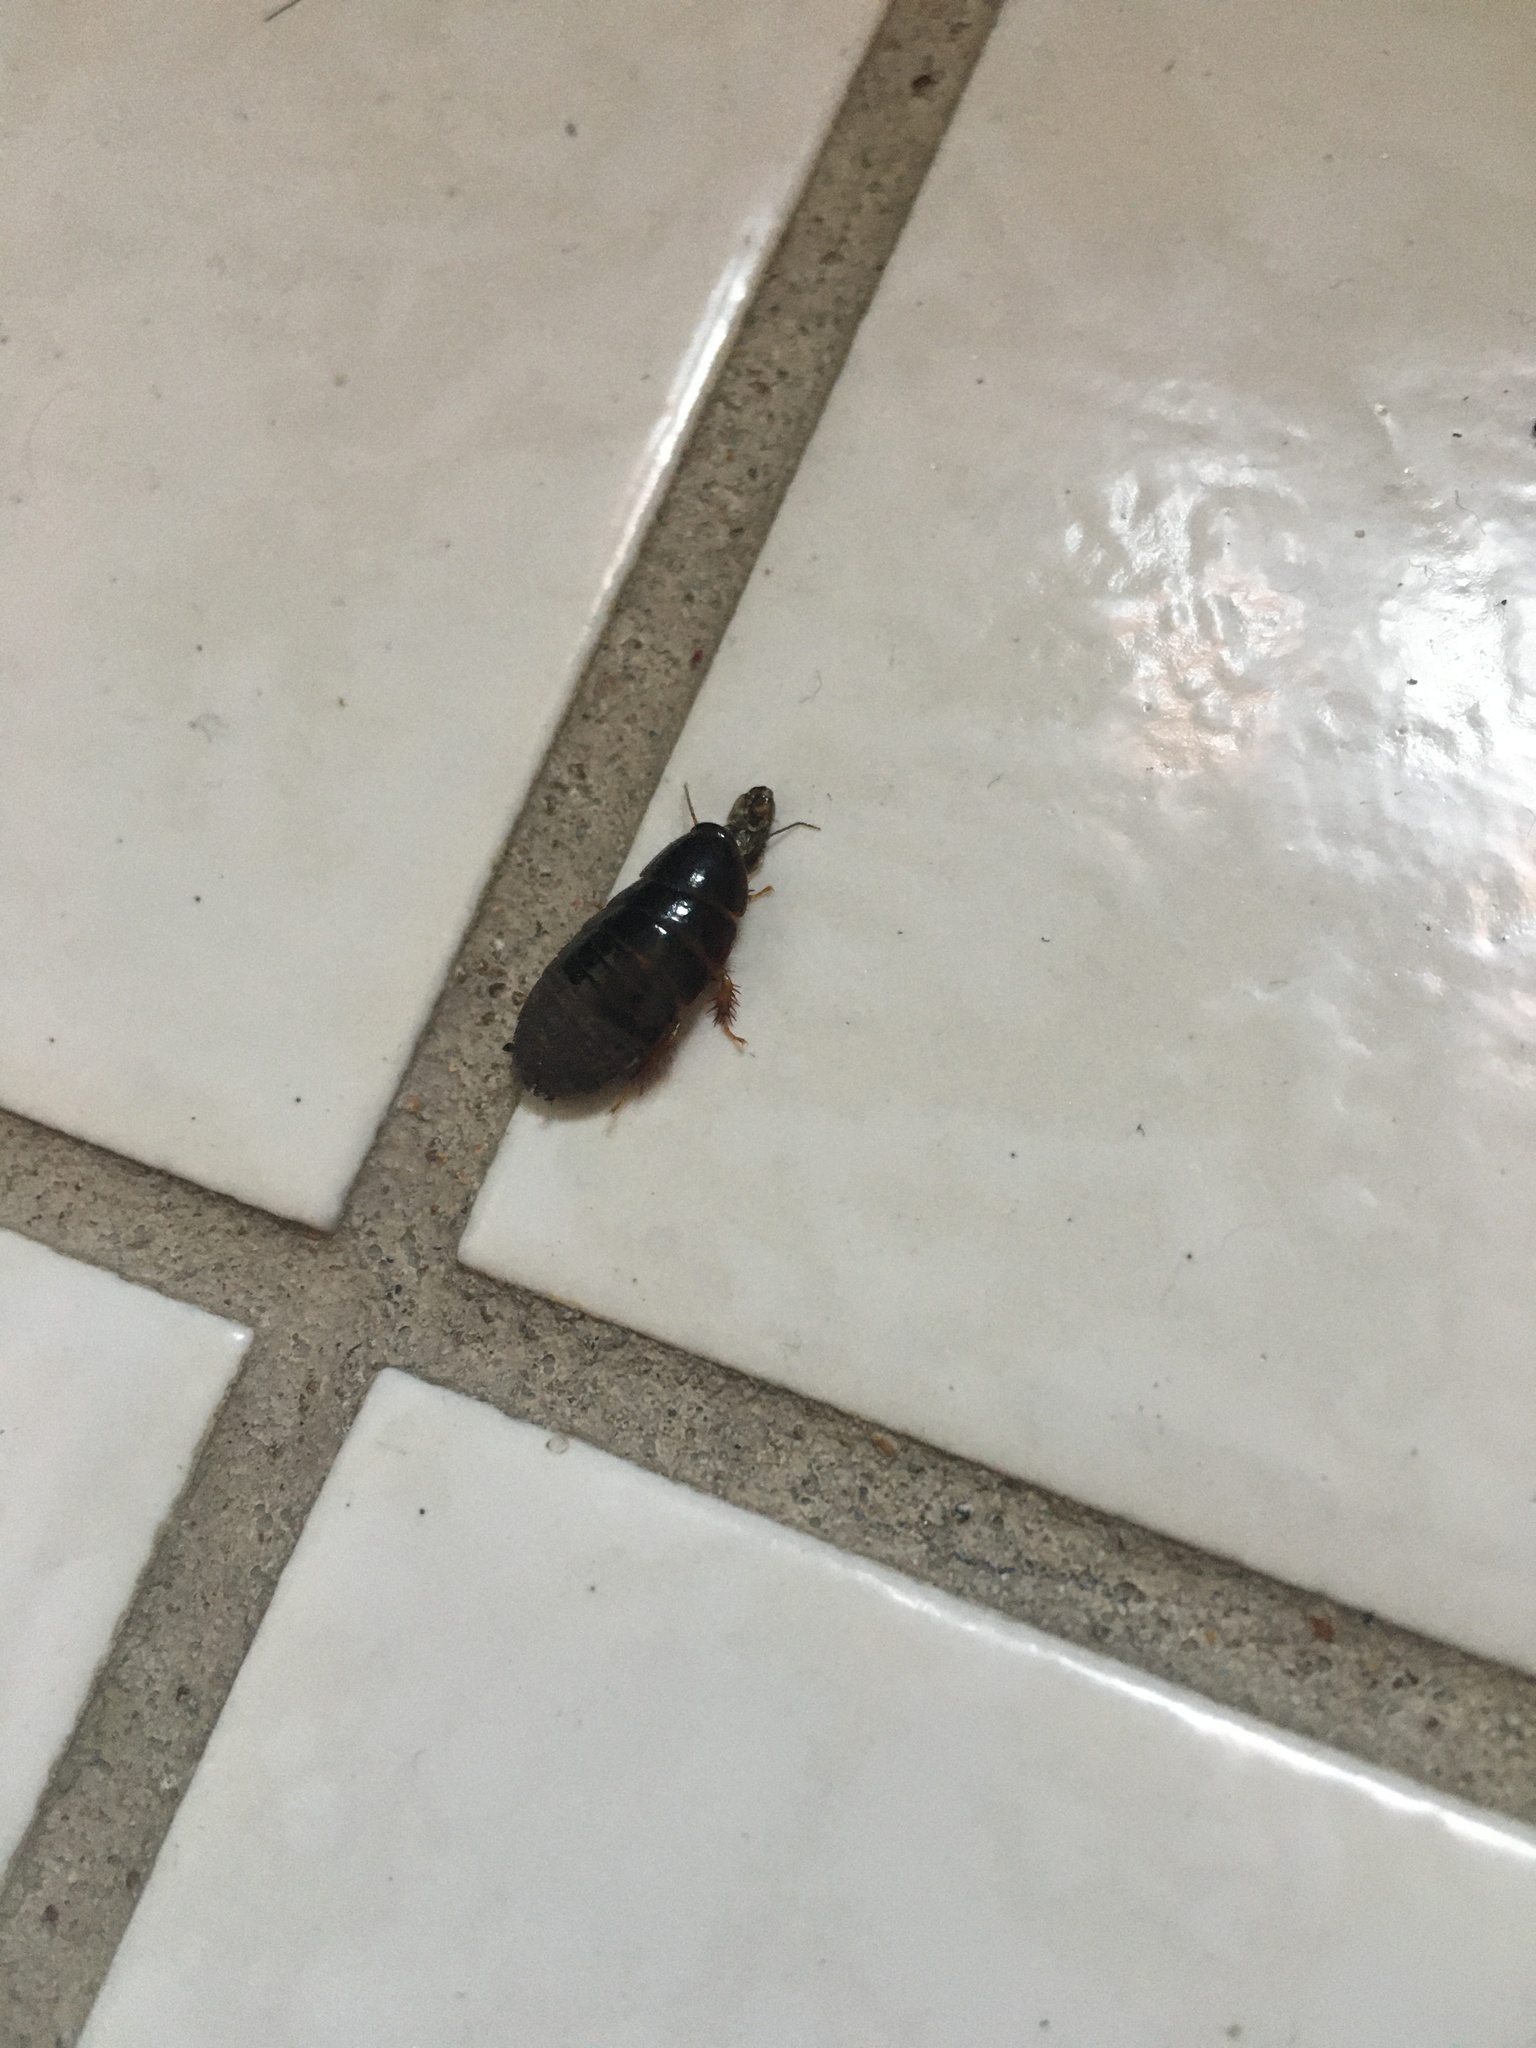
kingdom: Animalia
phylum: Arthropoda
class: Insecta
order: Blattodea
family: Blaberidae
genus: Pycnoscelus
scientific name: Pycnoscelus surinamensis
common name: Surinam cockroach
